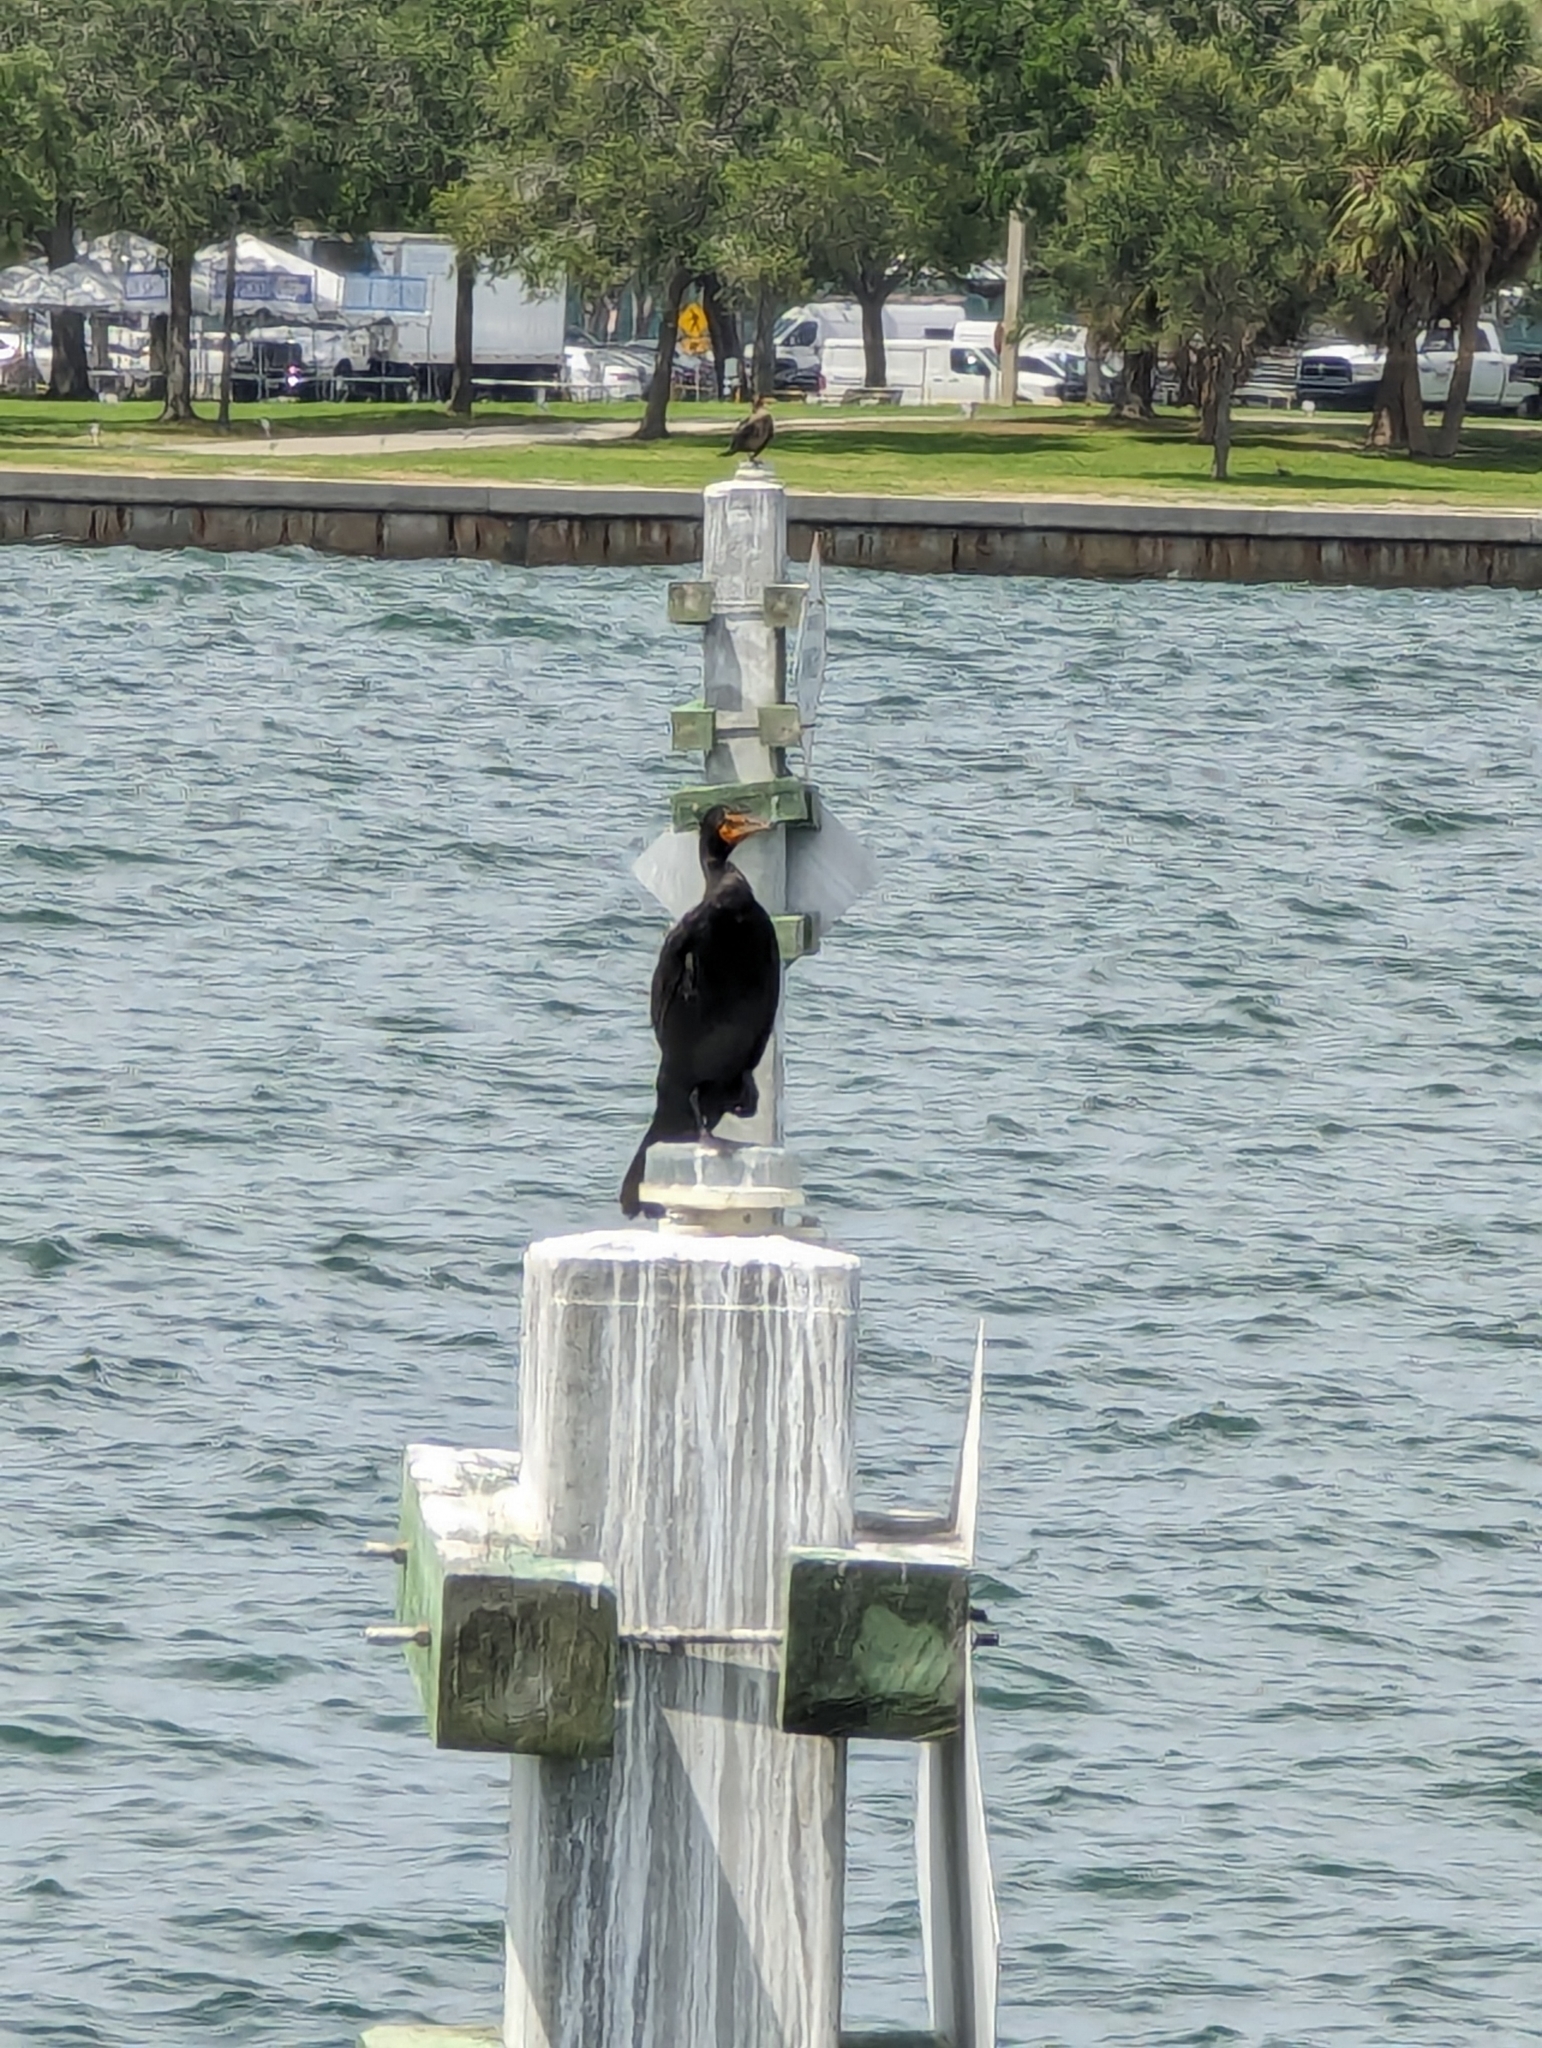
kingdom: Animalia
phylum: Chordata
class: Aves
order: Suliformes
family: Phalacrocoracidae
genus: Phalacrocorax
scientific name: Phalacrocorax auritus
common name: Double-crested cormorant
